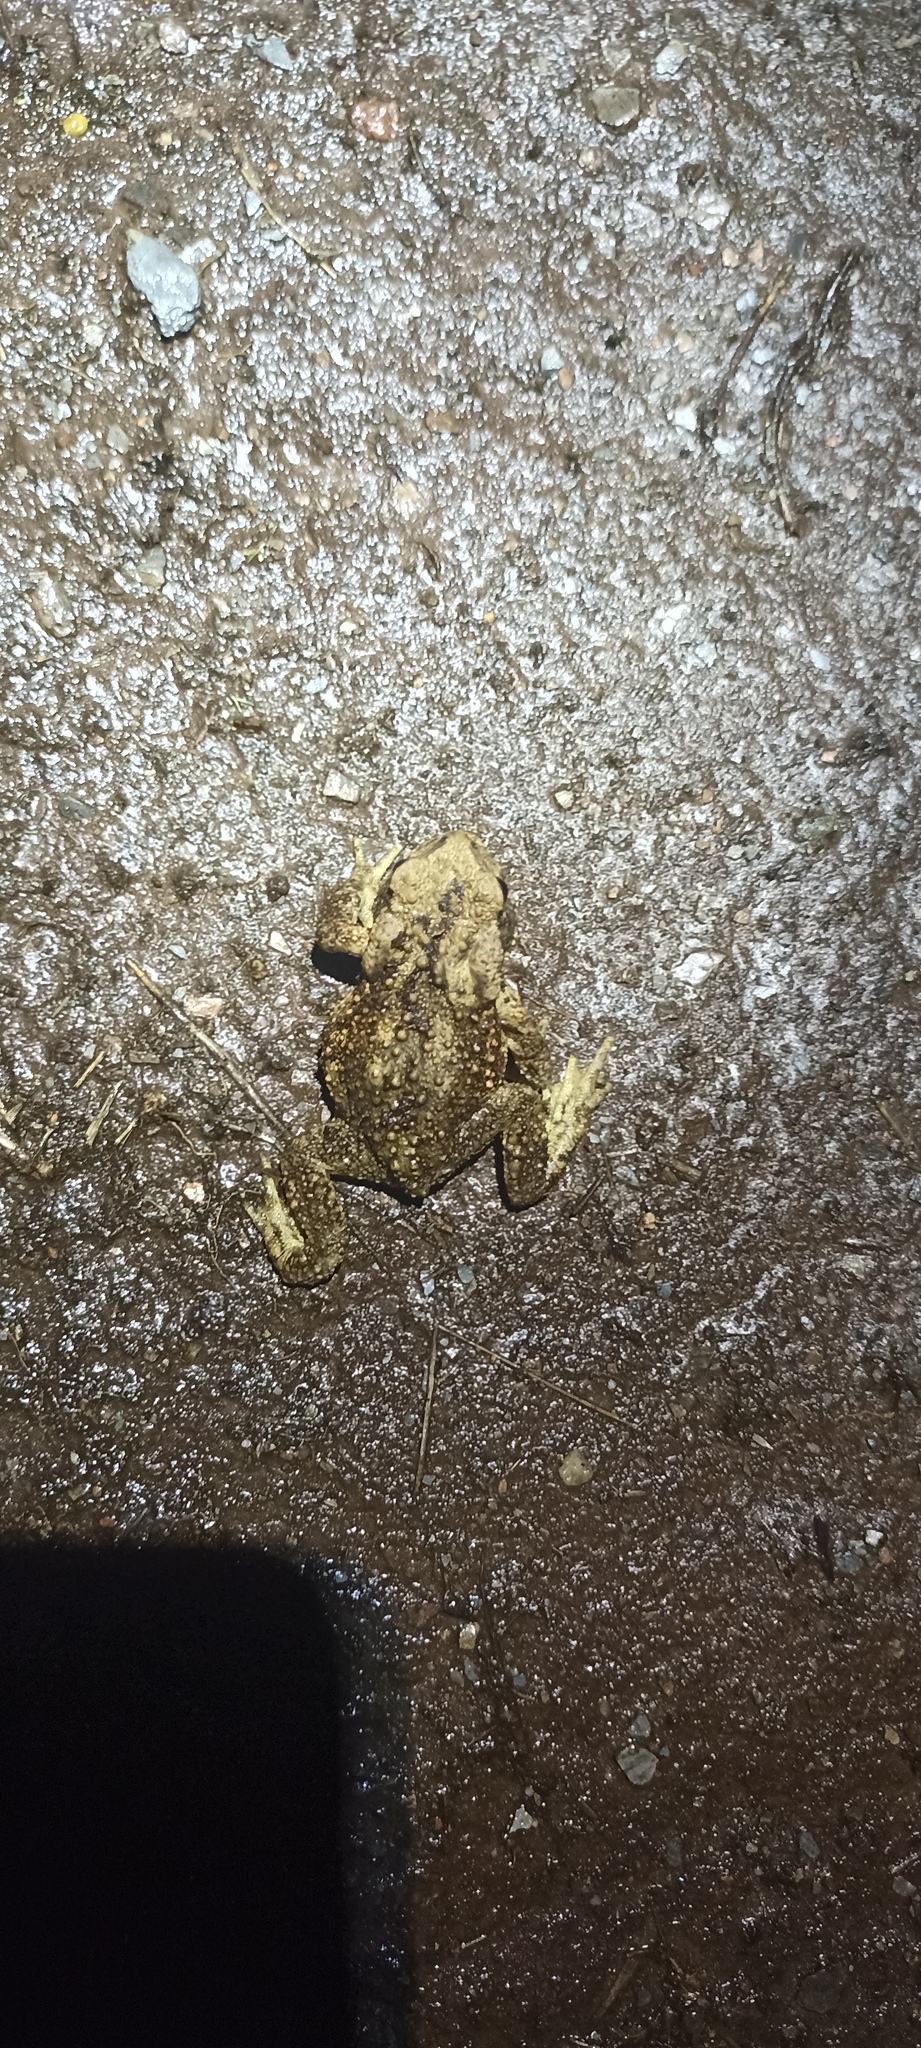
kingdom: Animalia
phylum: Chordata
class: Amphibia
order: Anura
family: Bufonidae
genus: Bufo
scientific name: Bufo spinosus
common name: Western common toad
